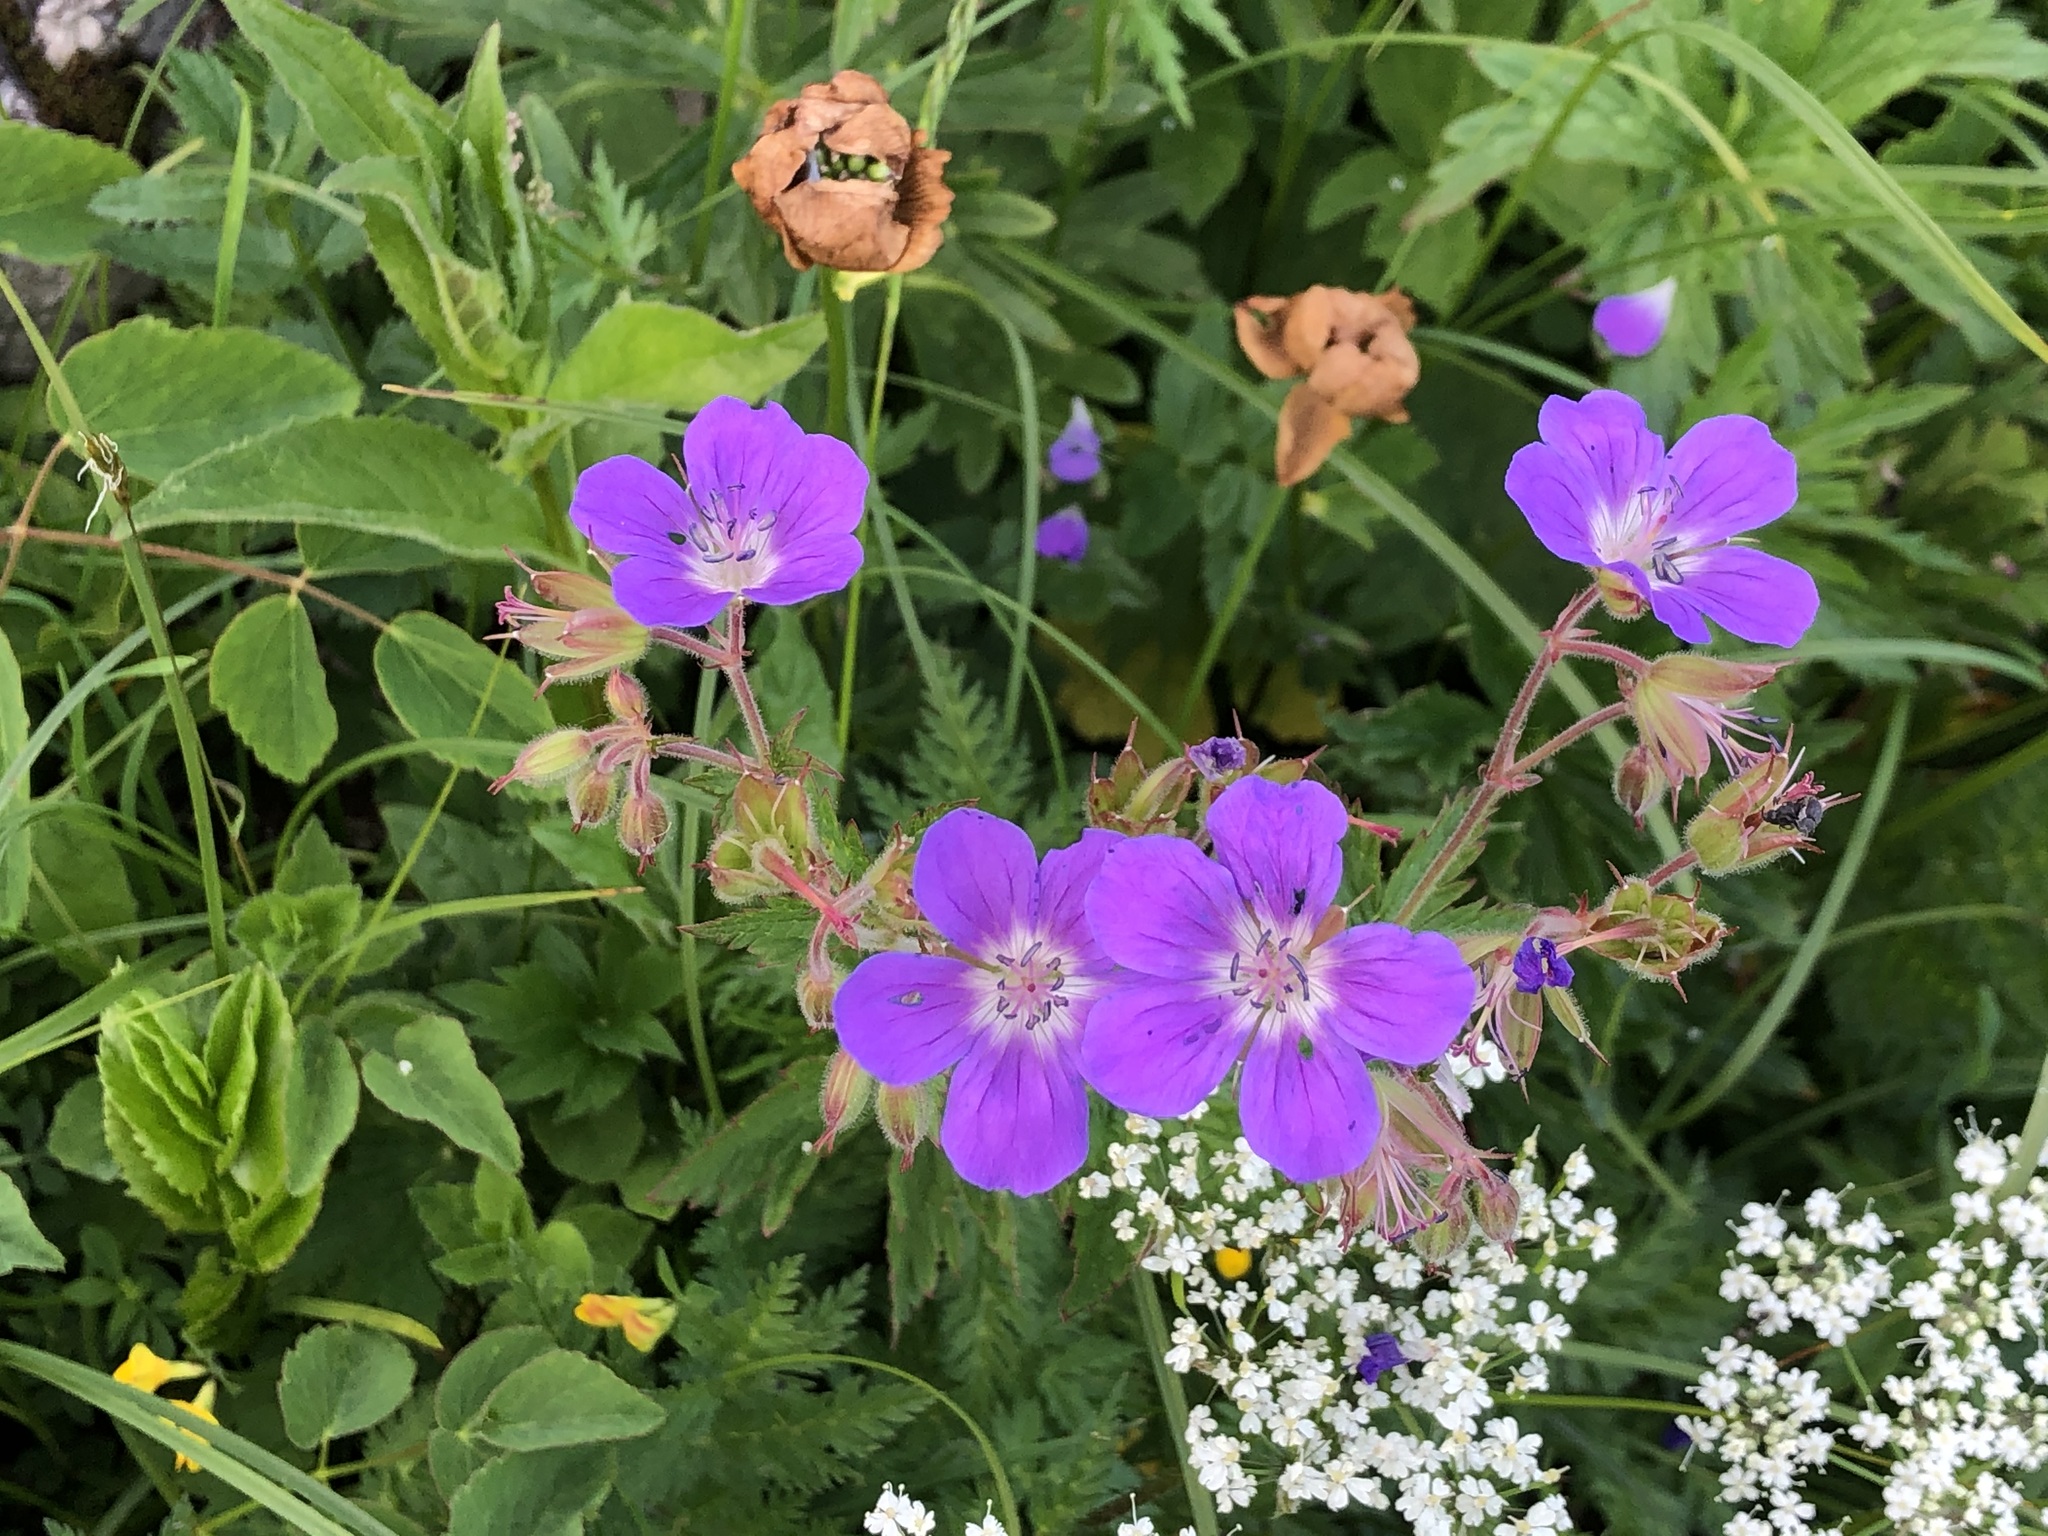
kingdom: Plantae
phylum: Tracheophyta
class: Magnoliopsida
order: Geraniales
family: Geraniaceae
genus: Geranium
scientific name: Geranium sylvaticum
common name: Wood crane's-bill
